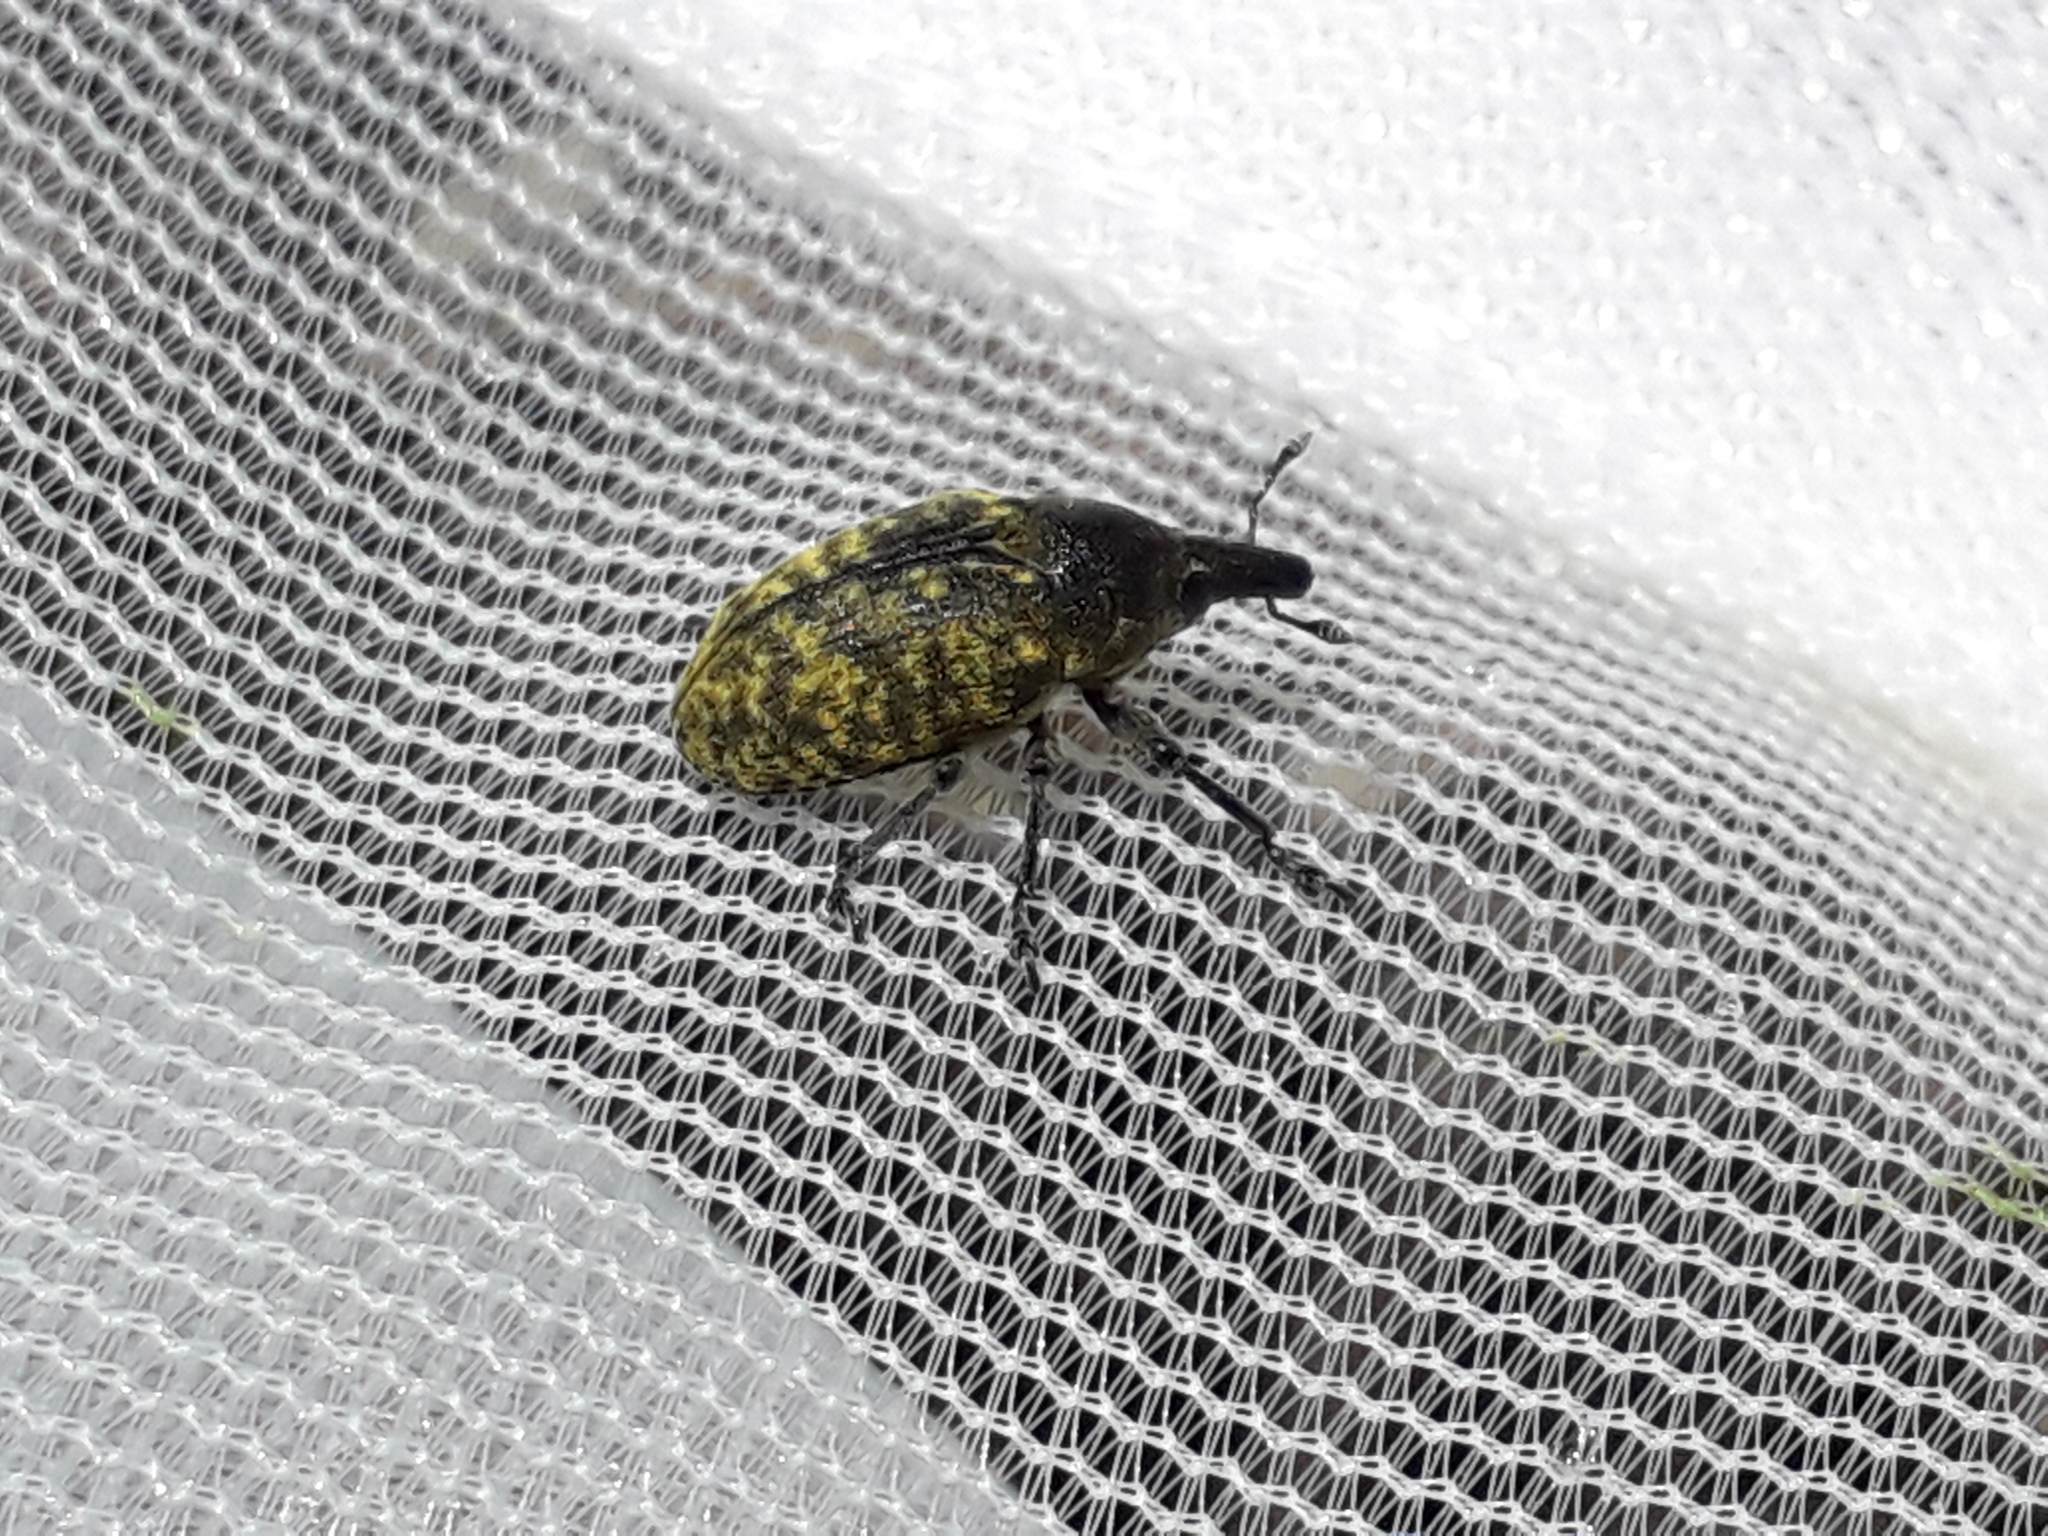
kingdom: Animalia
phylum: Arthropoda
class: Insecta
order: Coleoptera
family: Curculionidae
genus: Larinus
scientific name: Larinus turbinatus
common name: Weevil
